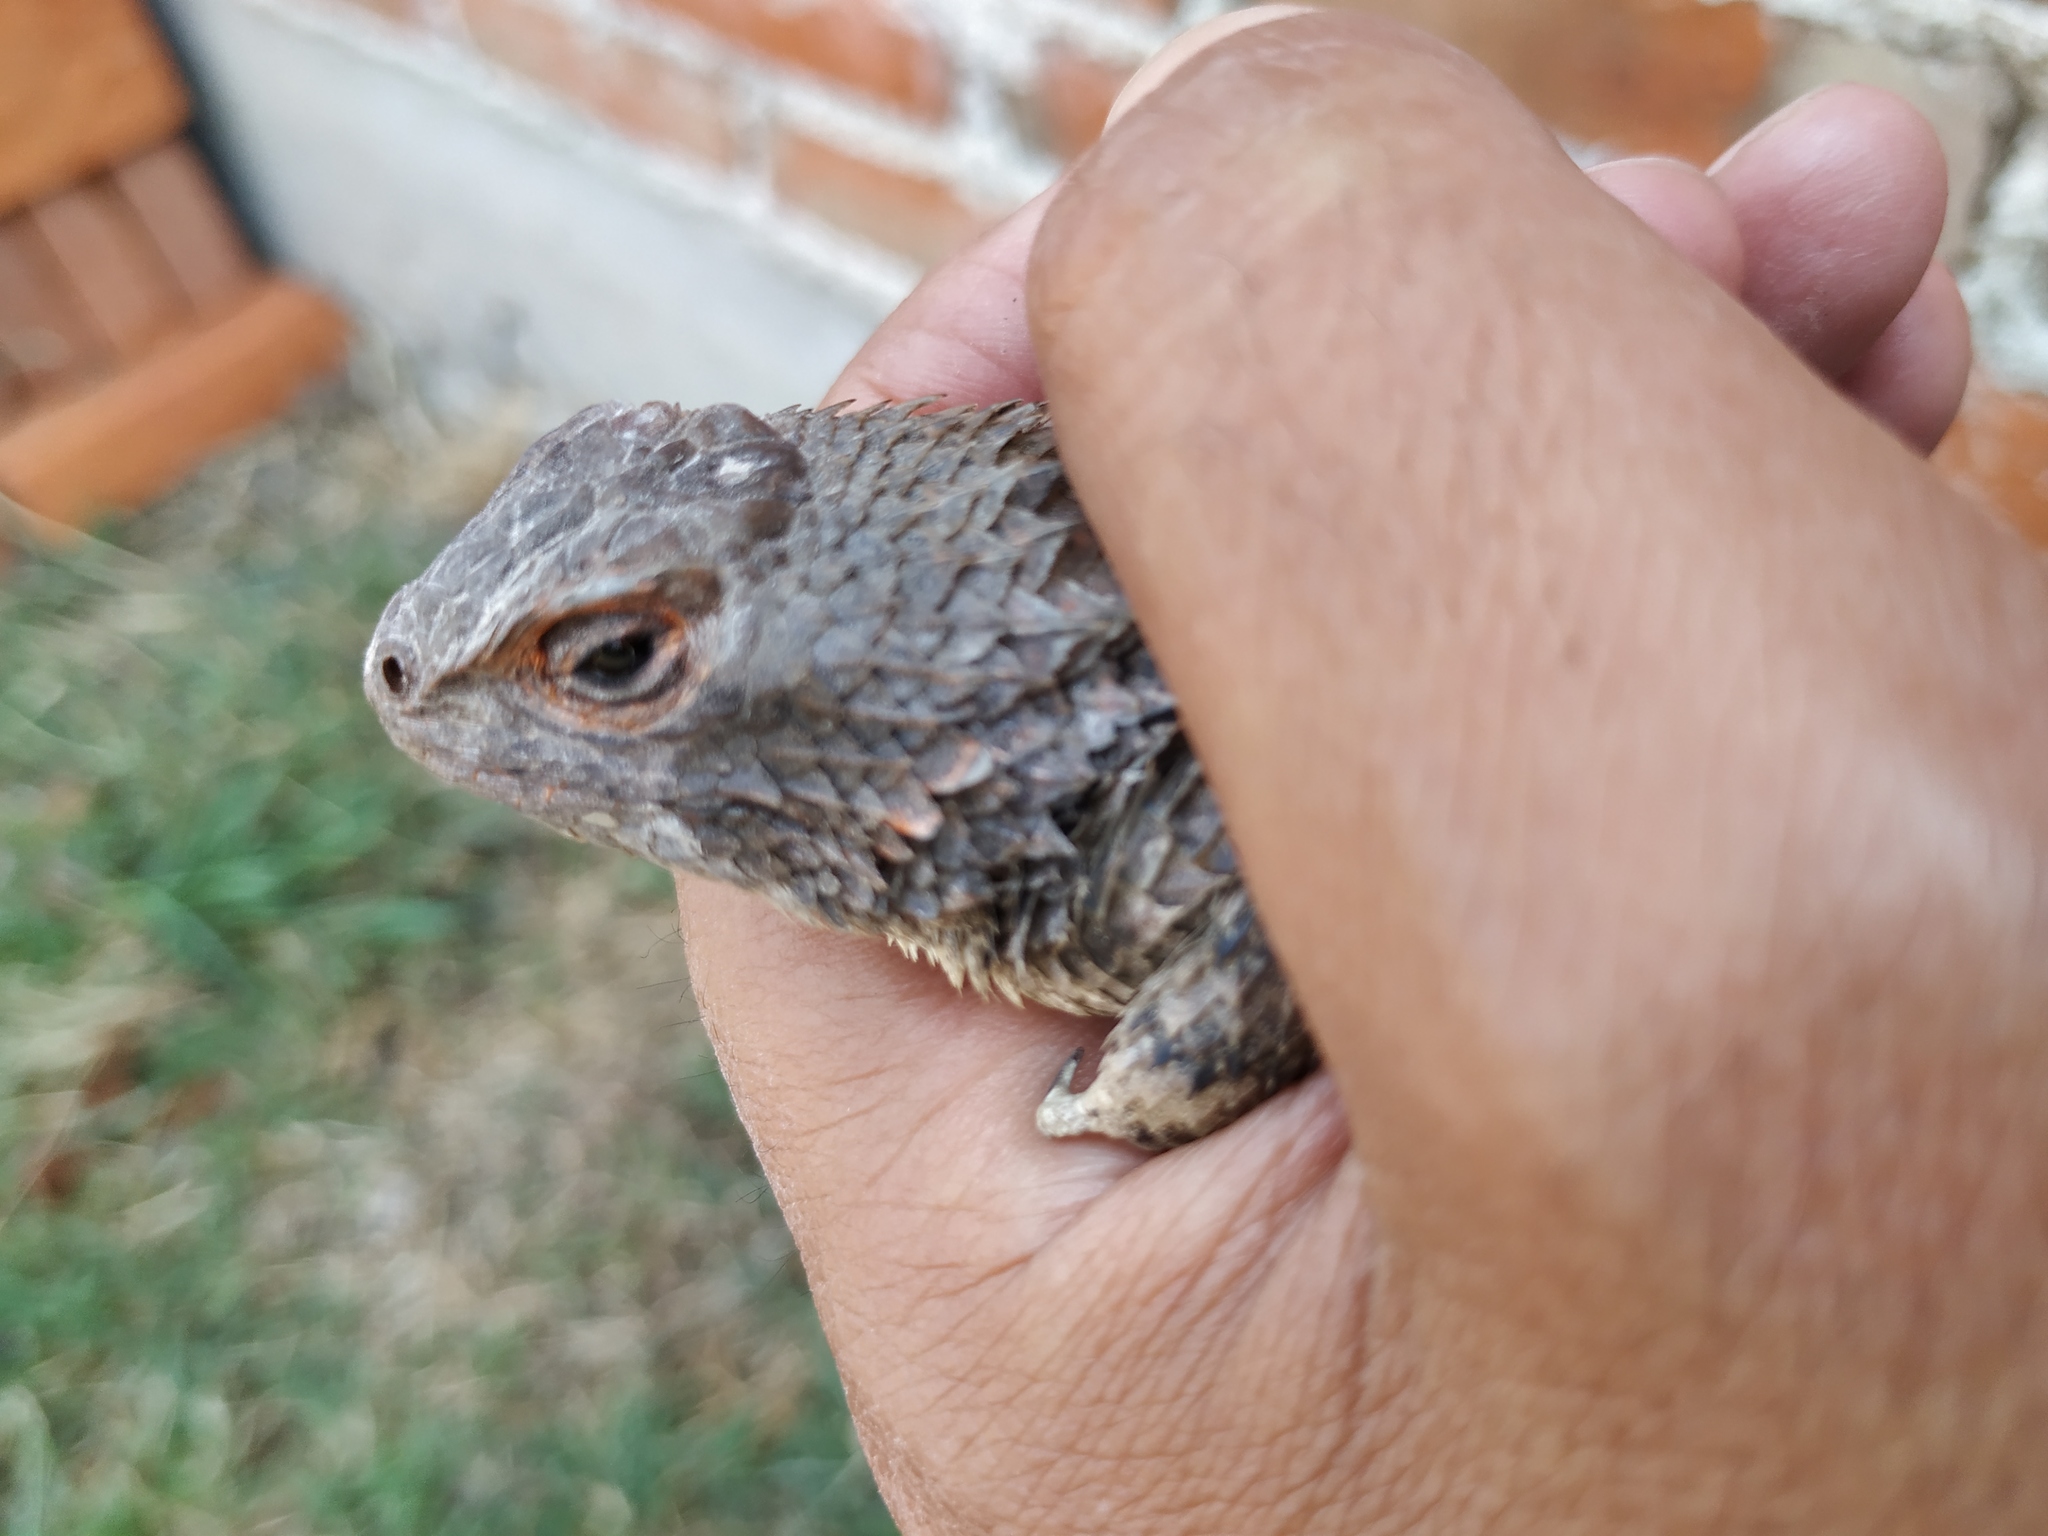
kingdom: Animalia
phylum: Chordata
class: Squamata
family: Phrynosomatidae
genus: Sceloporus
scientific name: Sceloporus spinosus
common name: Blue-spotted spiny lizard [caeruleopunctatus]
